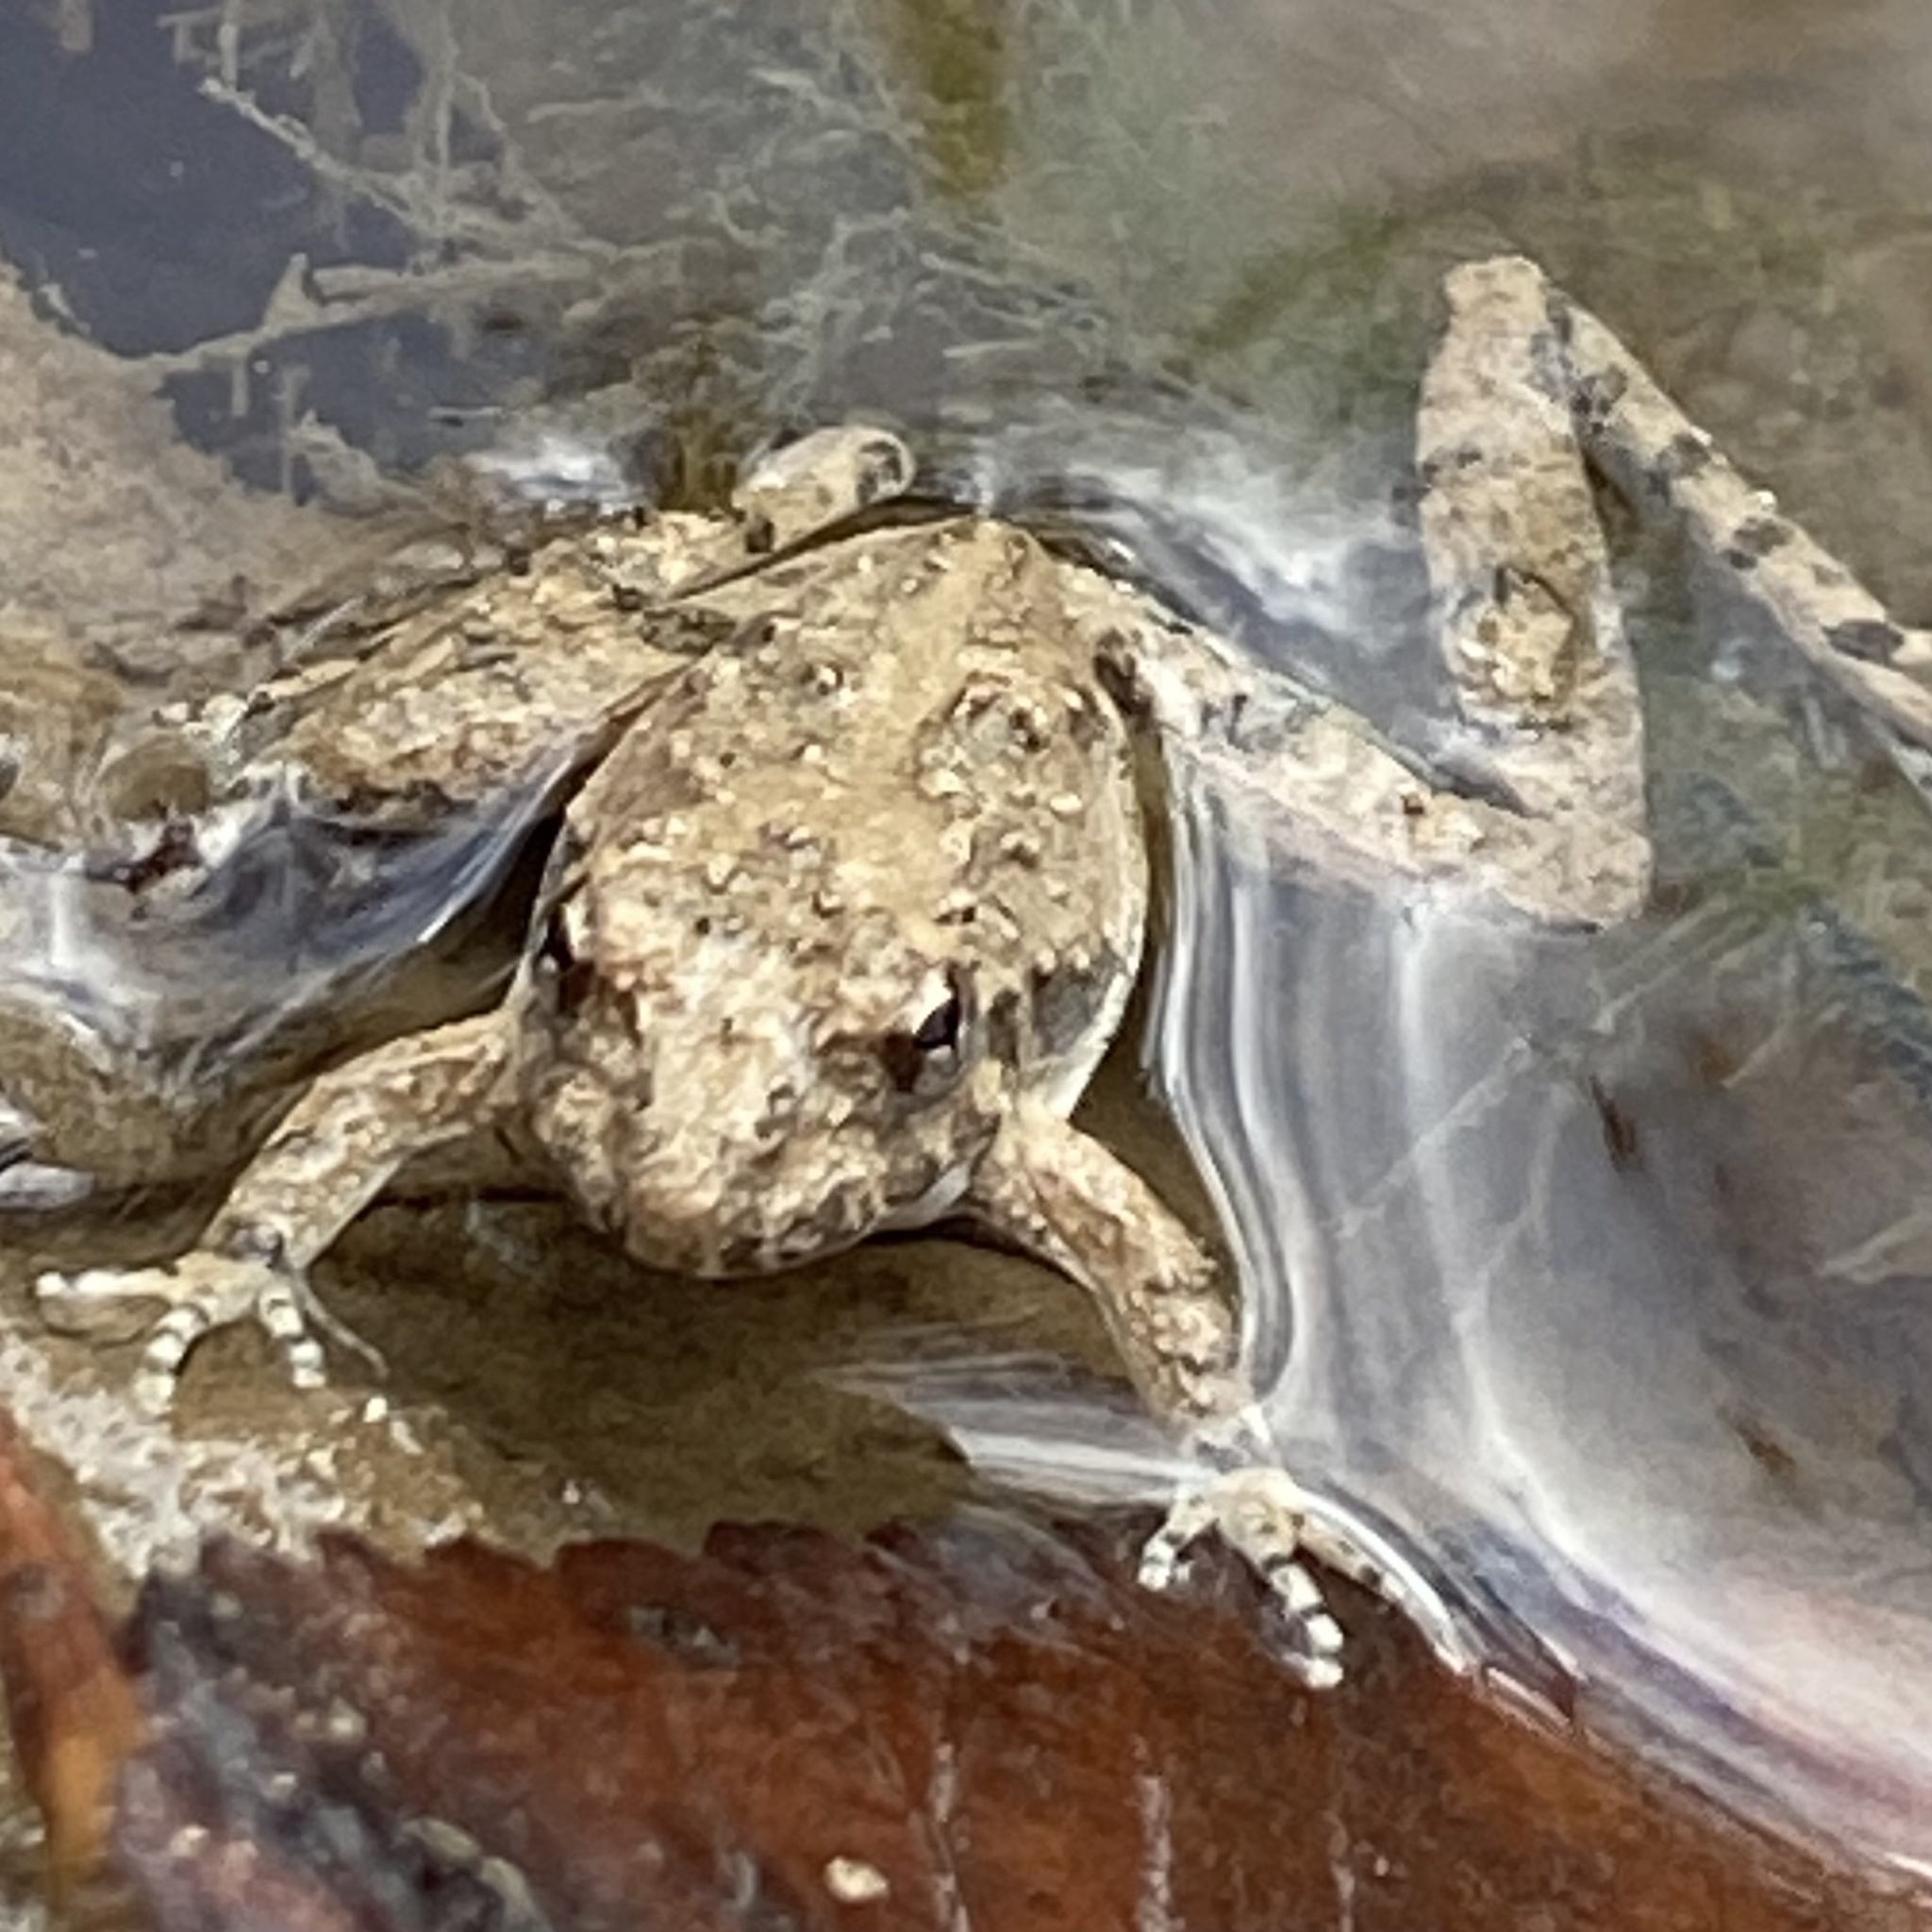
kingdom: Animalia
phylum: Chordata
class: Amphibia
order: Anura
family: Hylidae
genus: Acris
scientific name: Acris blanchardi
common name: Blanchard's cricket frog
